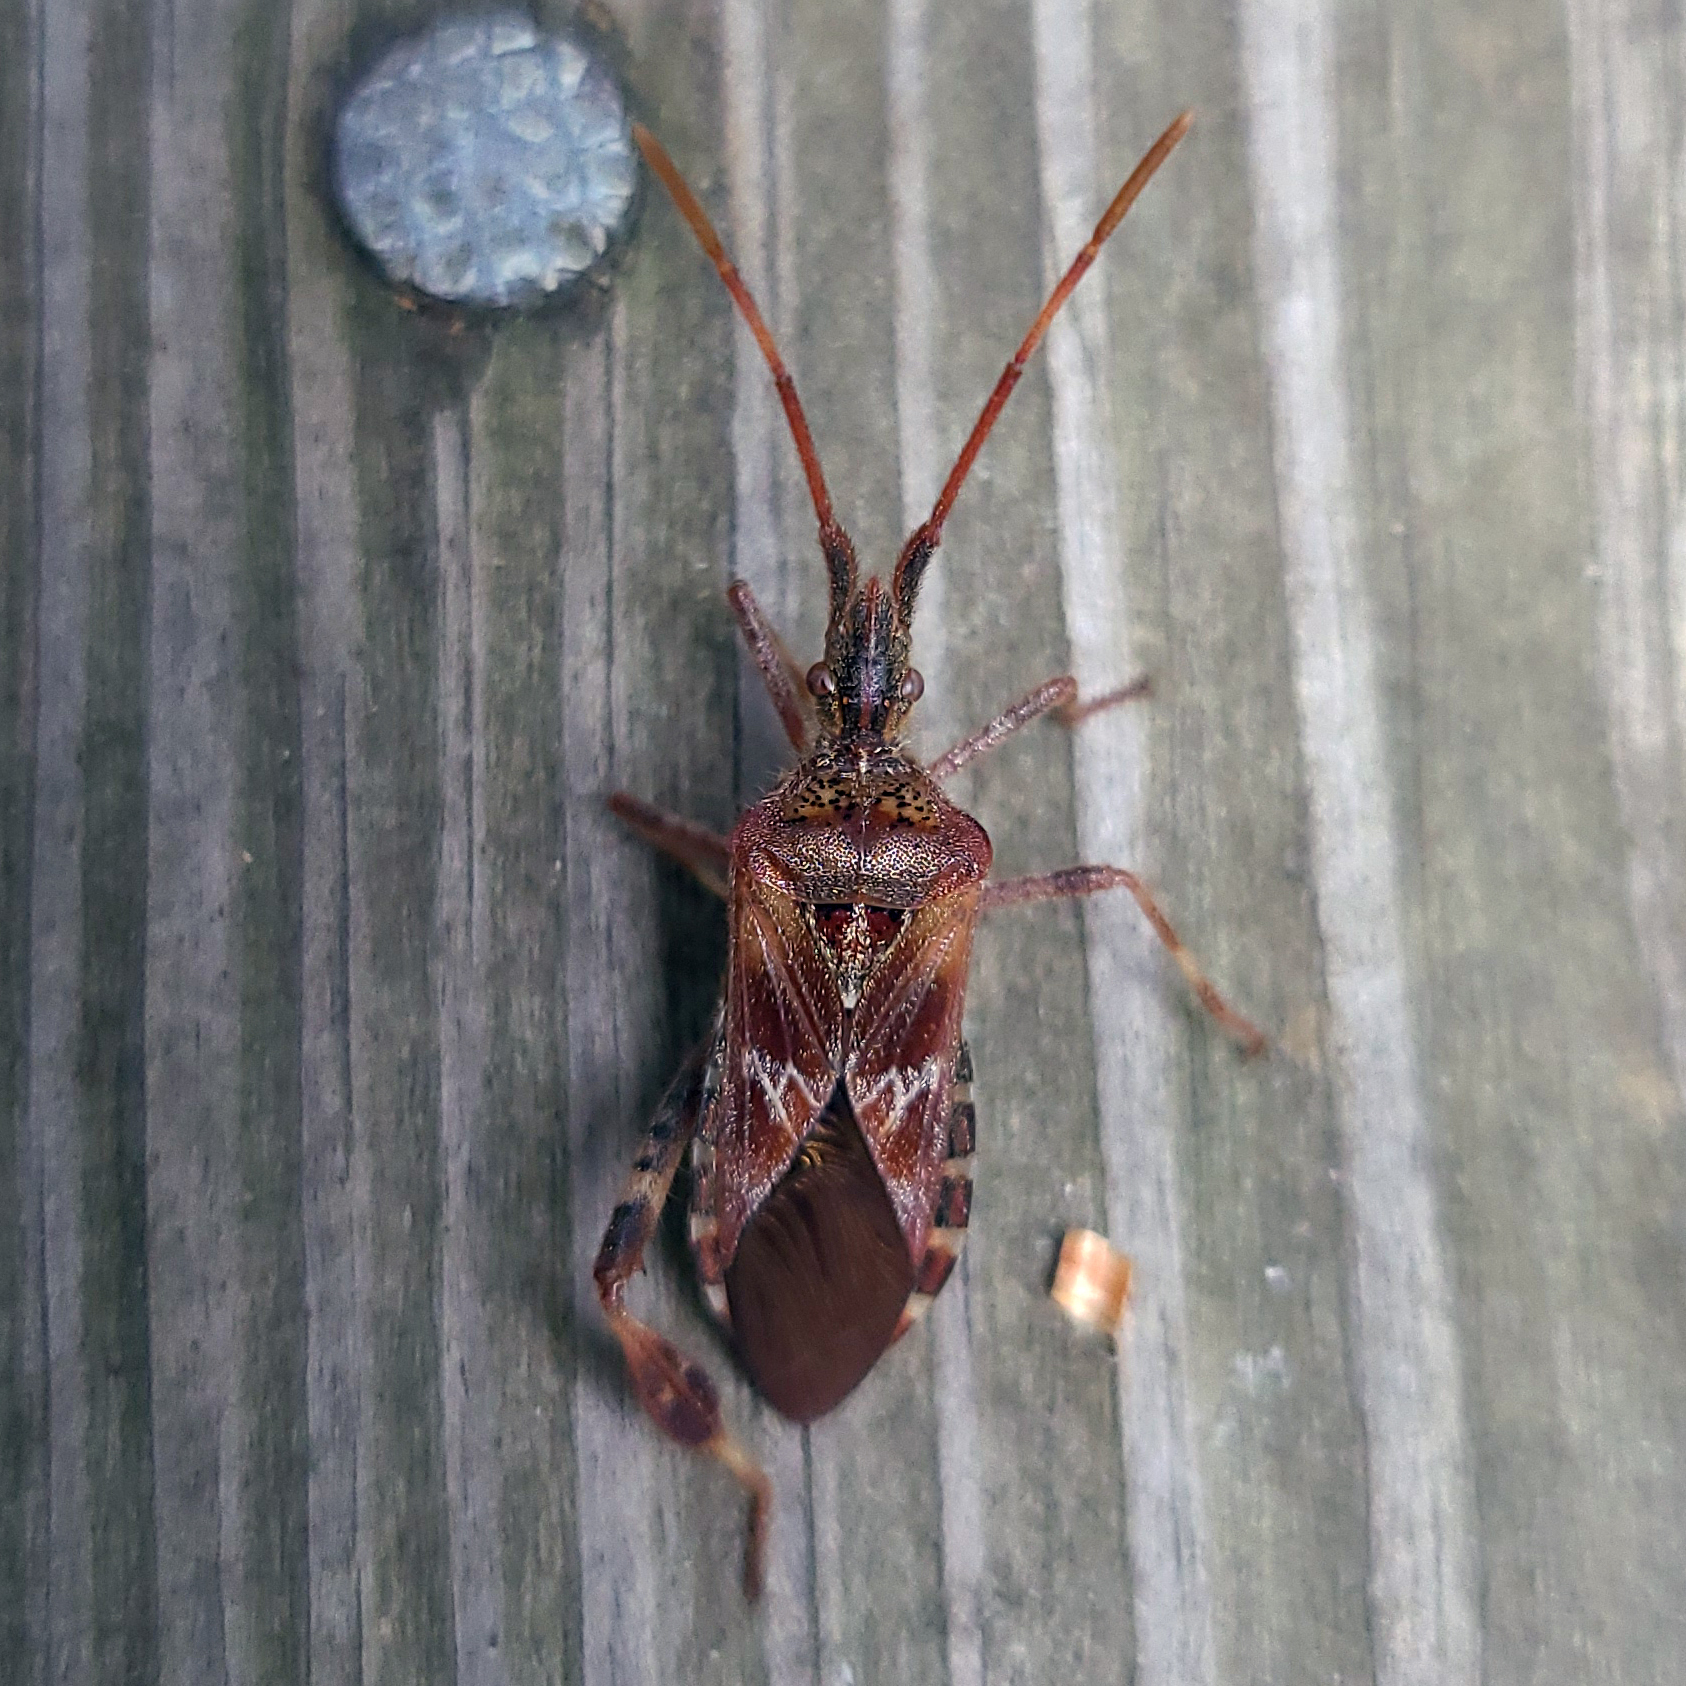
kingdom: Animalia
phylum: Arthropoda
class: Insecta
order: Hemiptera
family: Coreidae
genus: Leptoglossus
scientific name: Leptoglossus occidentalis
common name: Western conifer-seed bug
